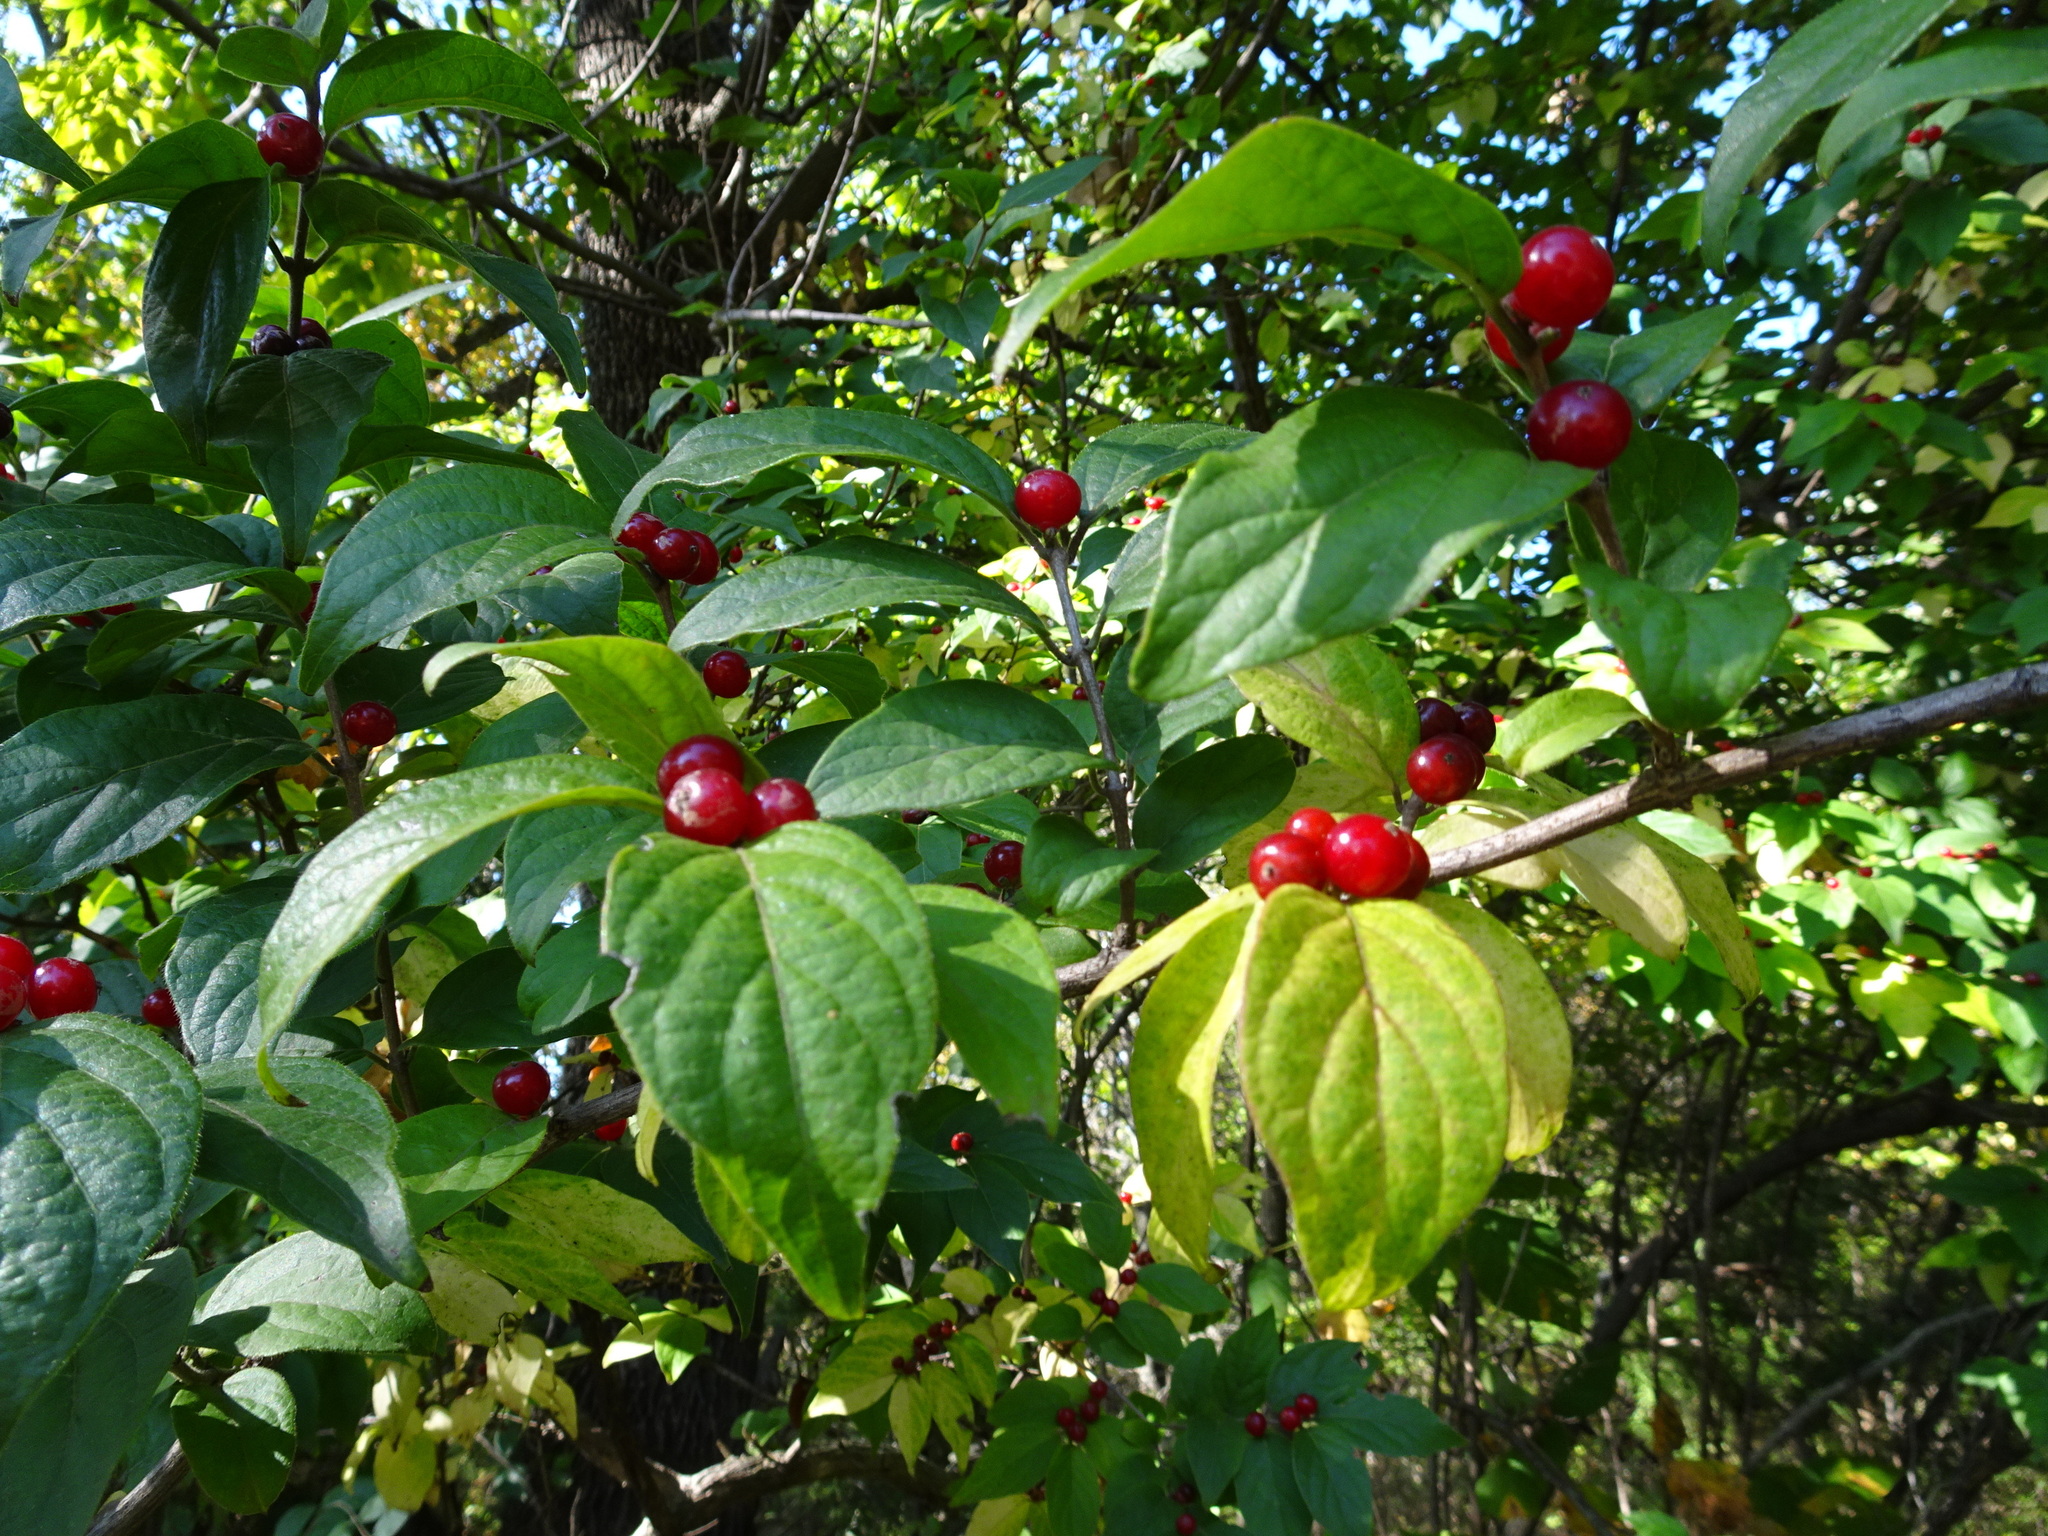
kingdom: Plantae
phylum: Tracheophyta
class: Magnoliopsida
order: Dipsacales
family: Caprifoliaceae
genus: Lonicera
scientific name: Lonicera maackii
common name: Amur honeysuckle
